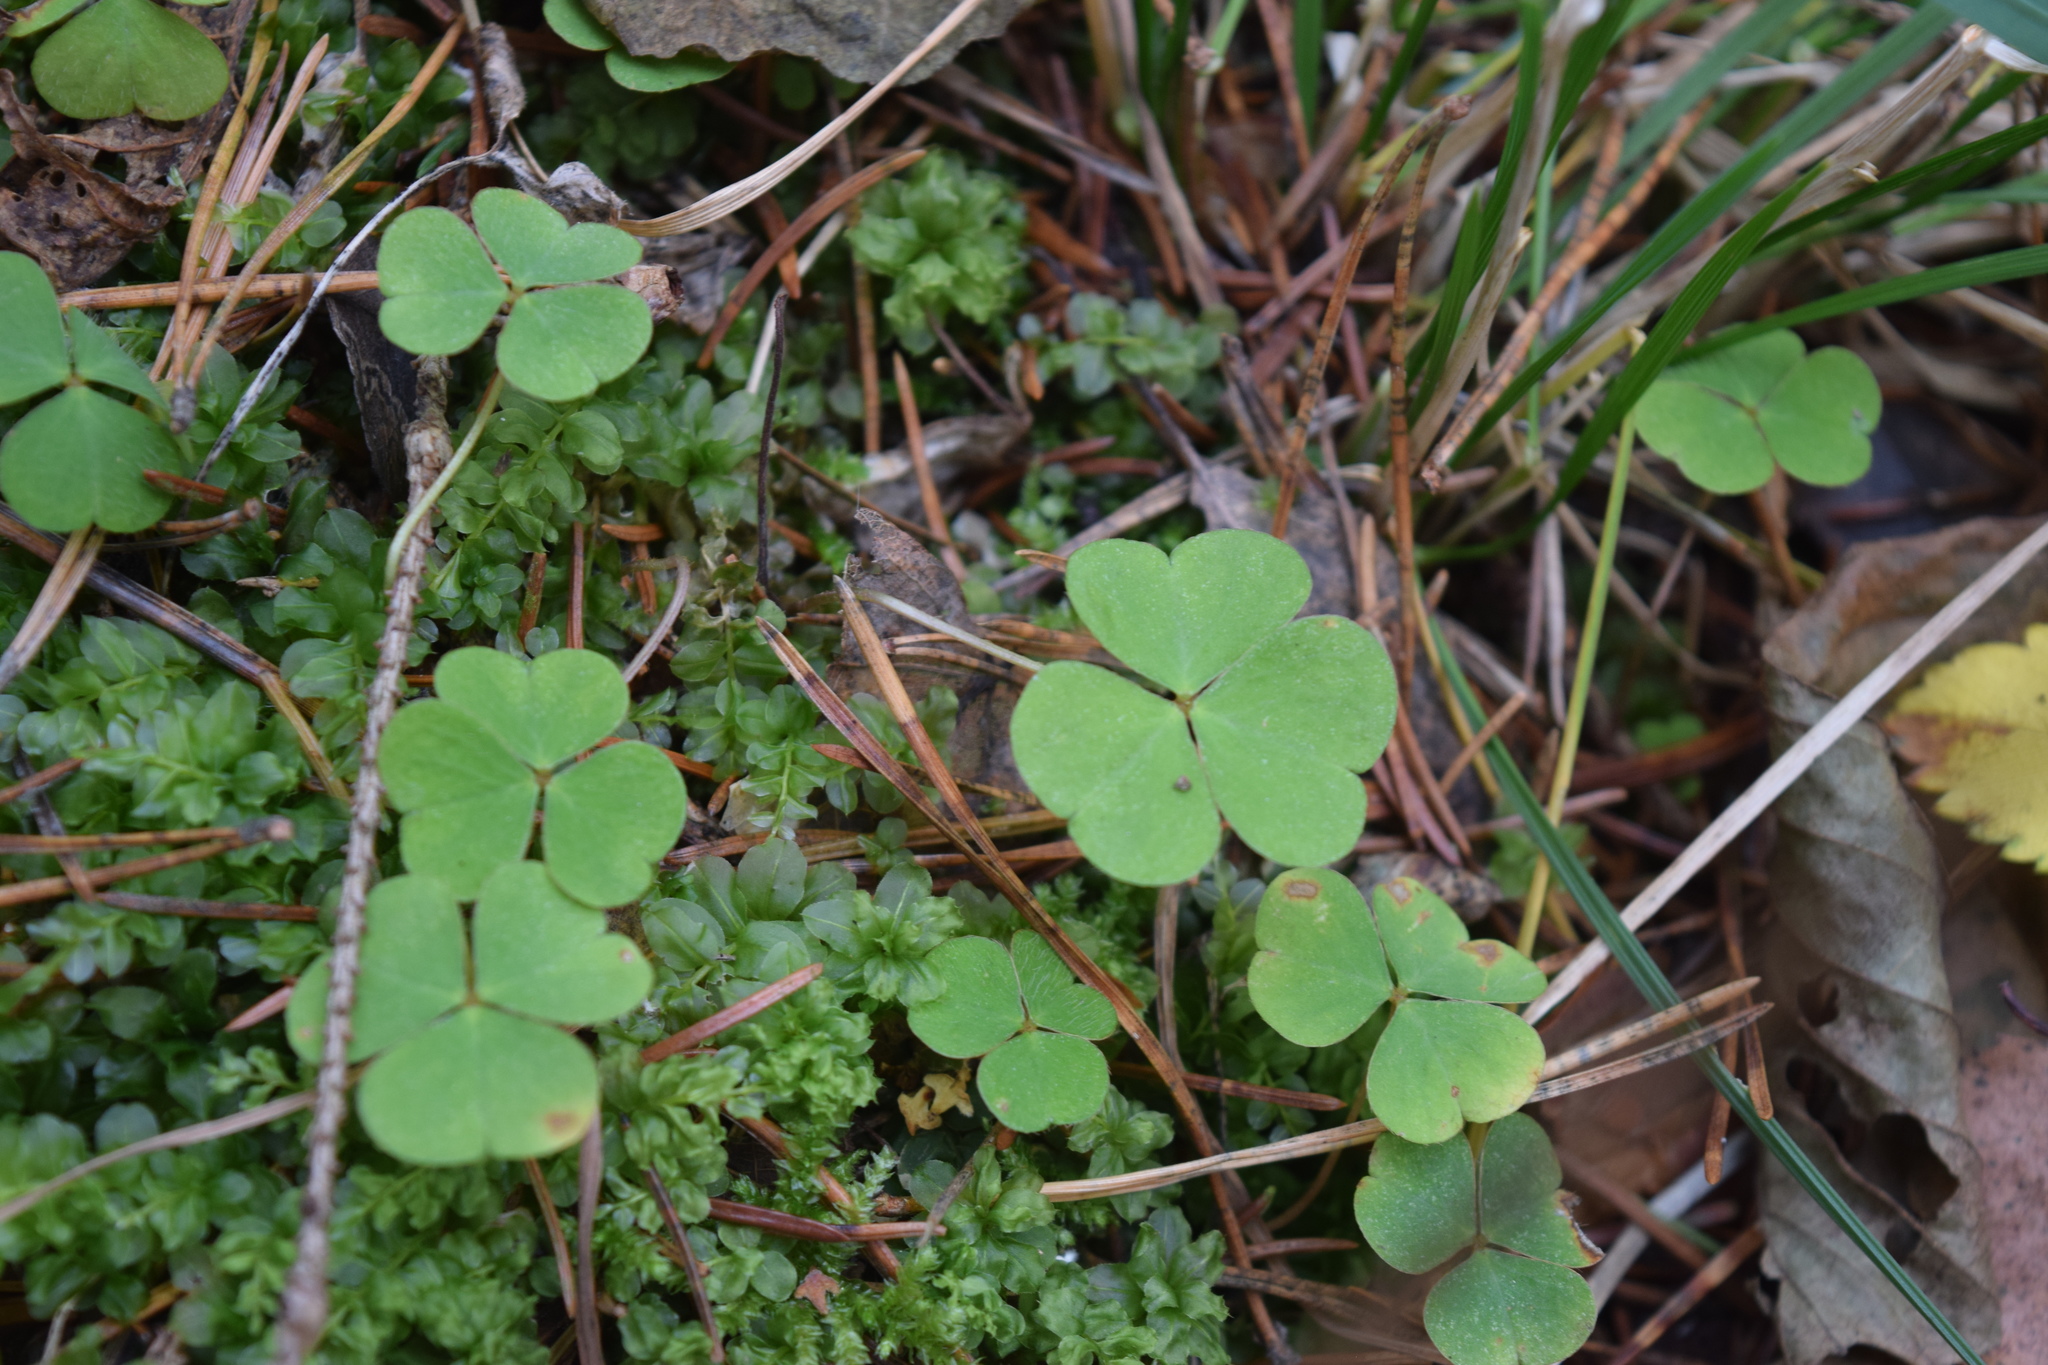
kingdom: Plantae
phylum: Tracheophyta
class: Magnoliopsida
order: Oxalidales
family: Oxalidaceae
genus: Oxalis
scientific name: Oxalis acetosella
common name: Wood-sorrel
